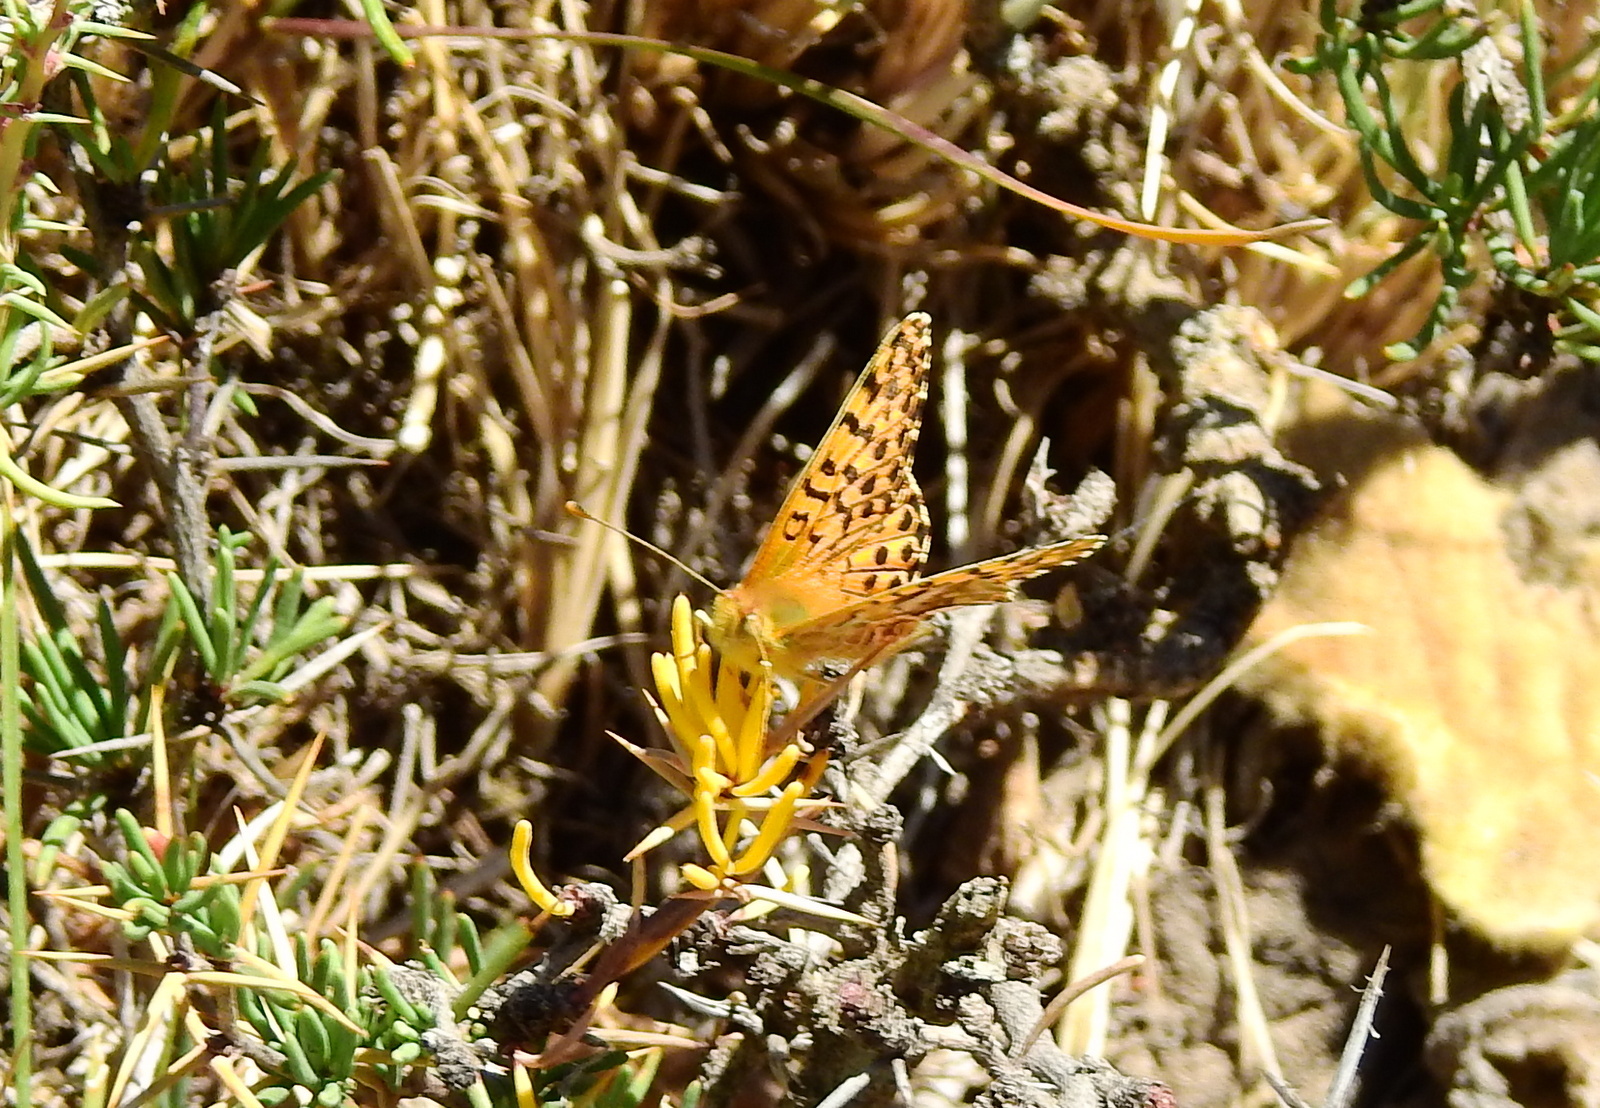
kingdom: Animalia
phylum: Arthropoda
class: Insecta
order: Lepidoptera
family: Nymphalidae
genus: Issoria
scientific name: Issoria Yramea lathonoides
